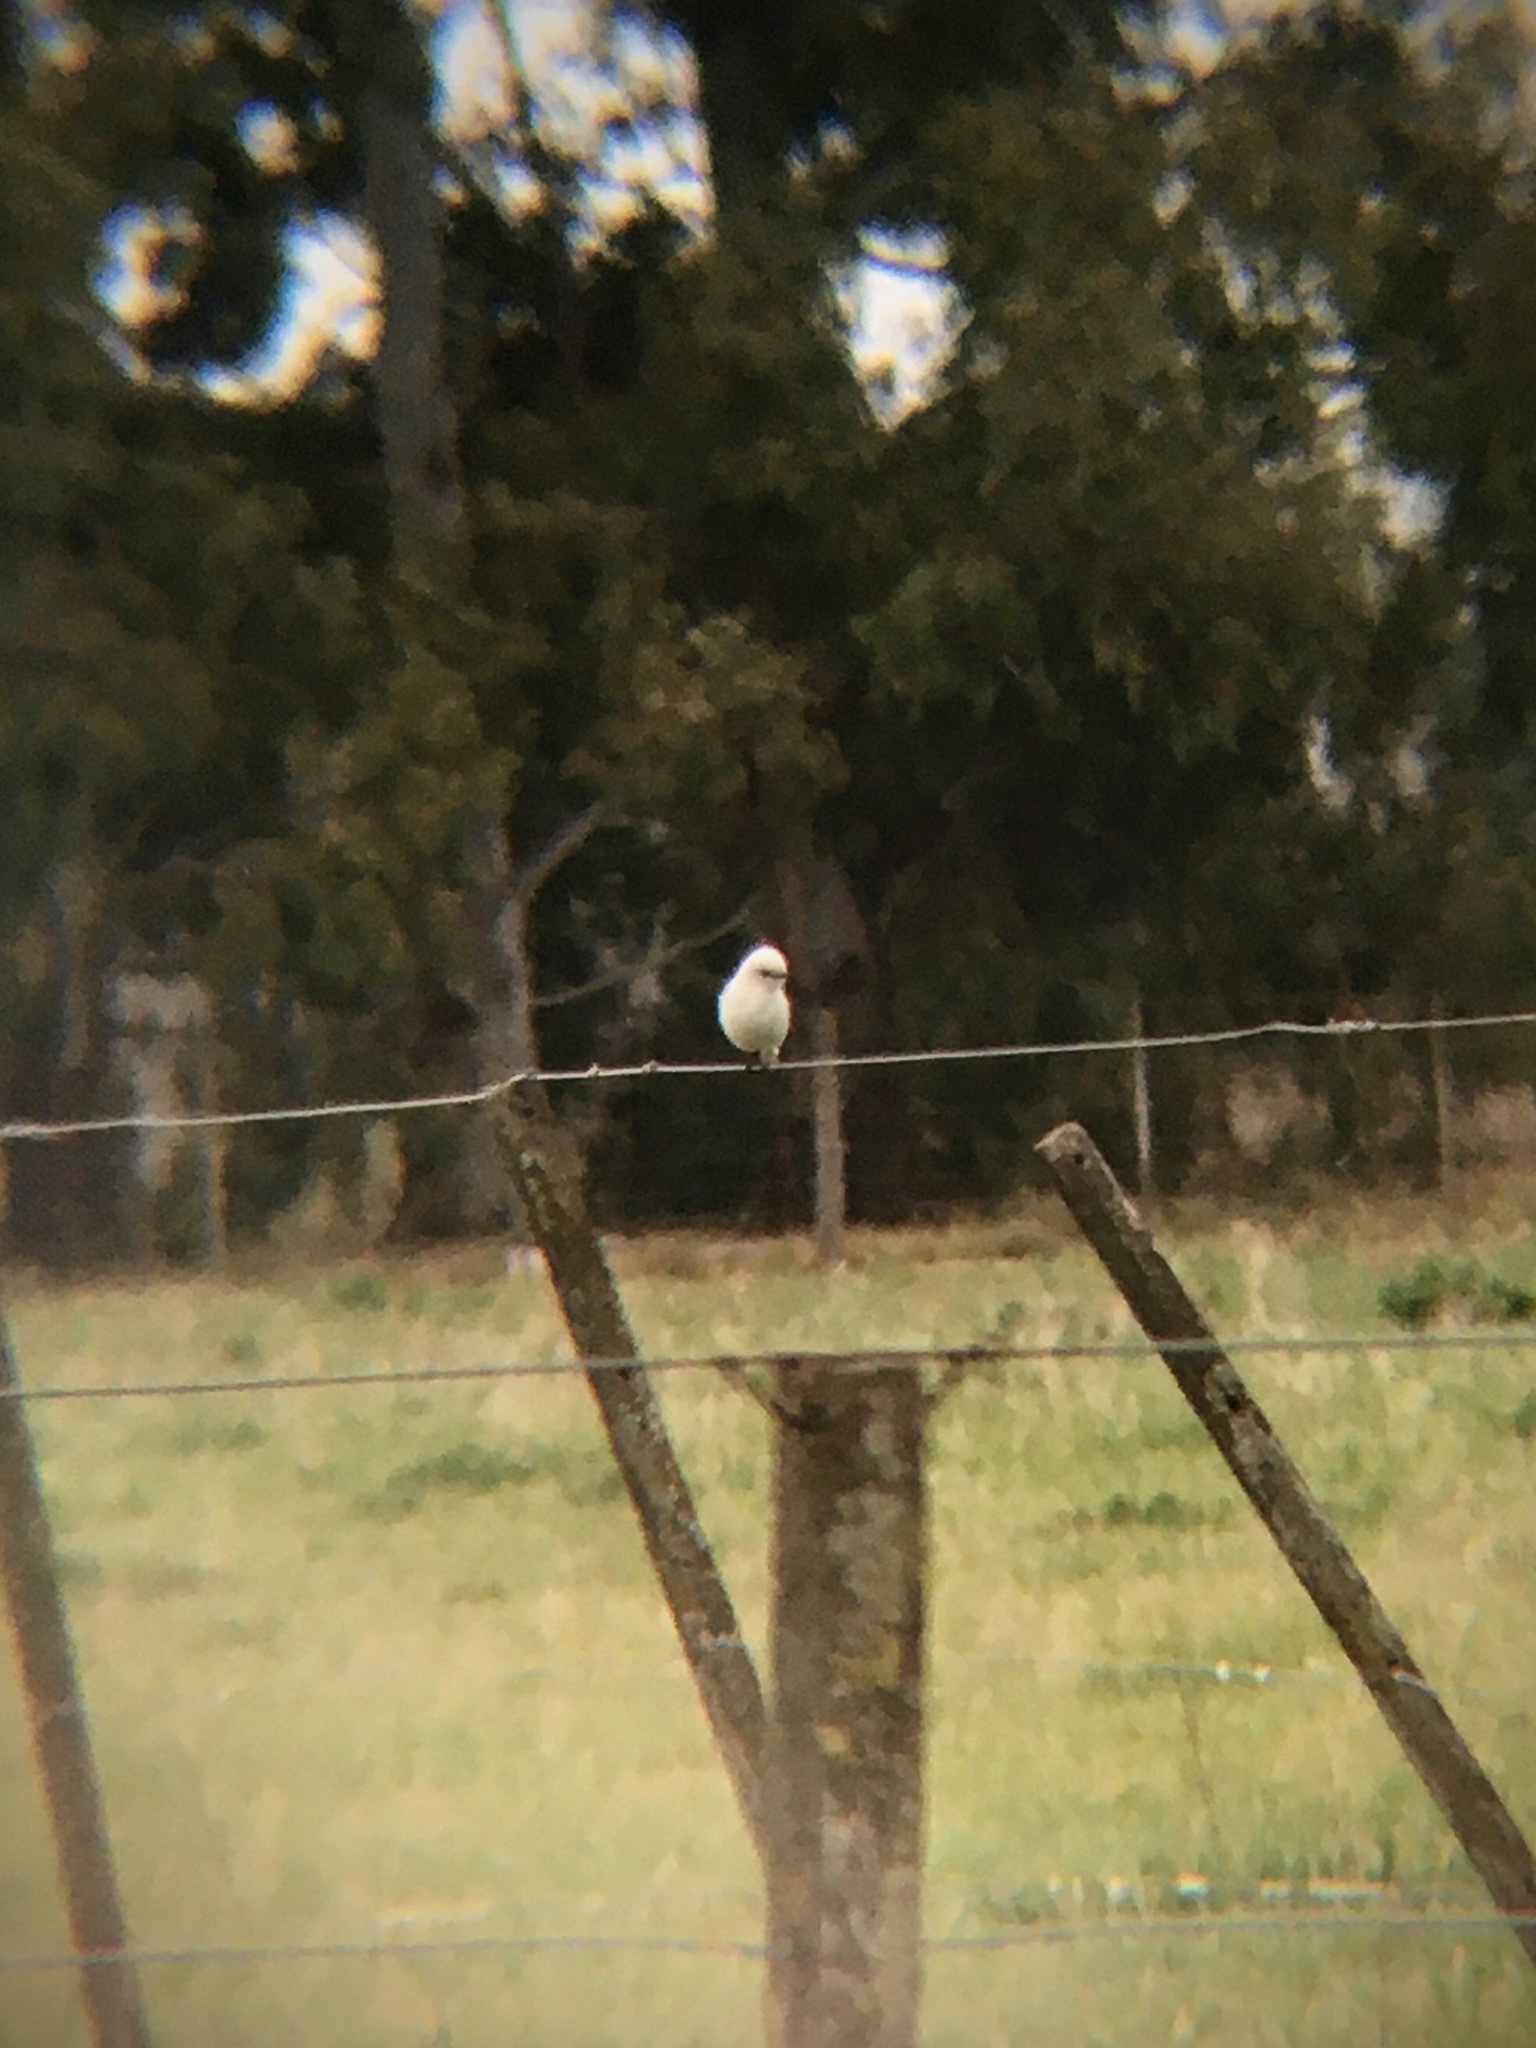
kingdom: Animalia
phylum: Chordata
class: Aves
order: Passeriformes
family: Tyrannidae
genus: Xolmis
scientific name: Xolmis irupero
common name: White monjita
